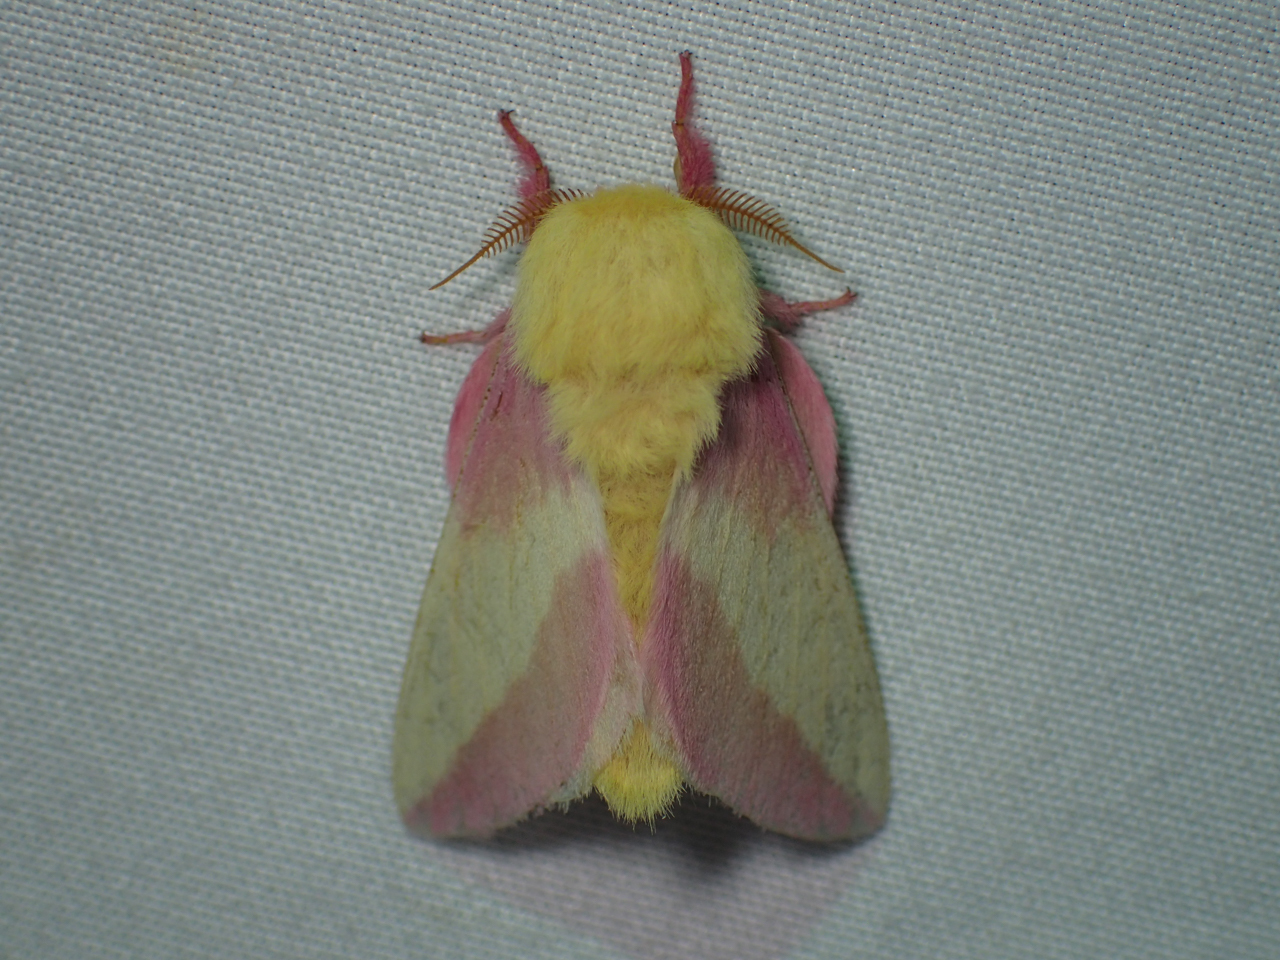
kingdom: Animalia
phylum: Arthropoda
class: Insecta
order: Lepidoptera
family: Saturniidae
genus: Dryocampa
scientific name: Dryocampa rubicunda
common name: Rosy maple moth
